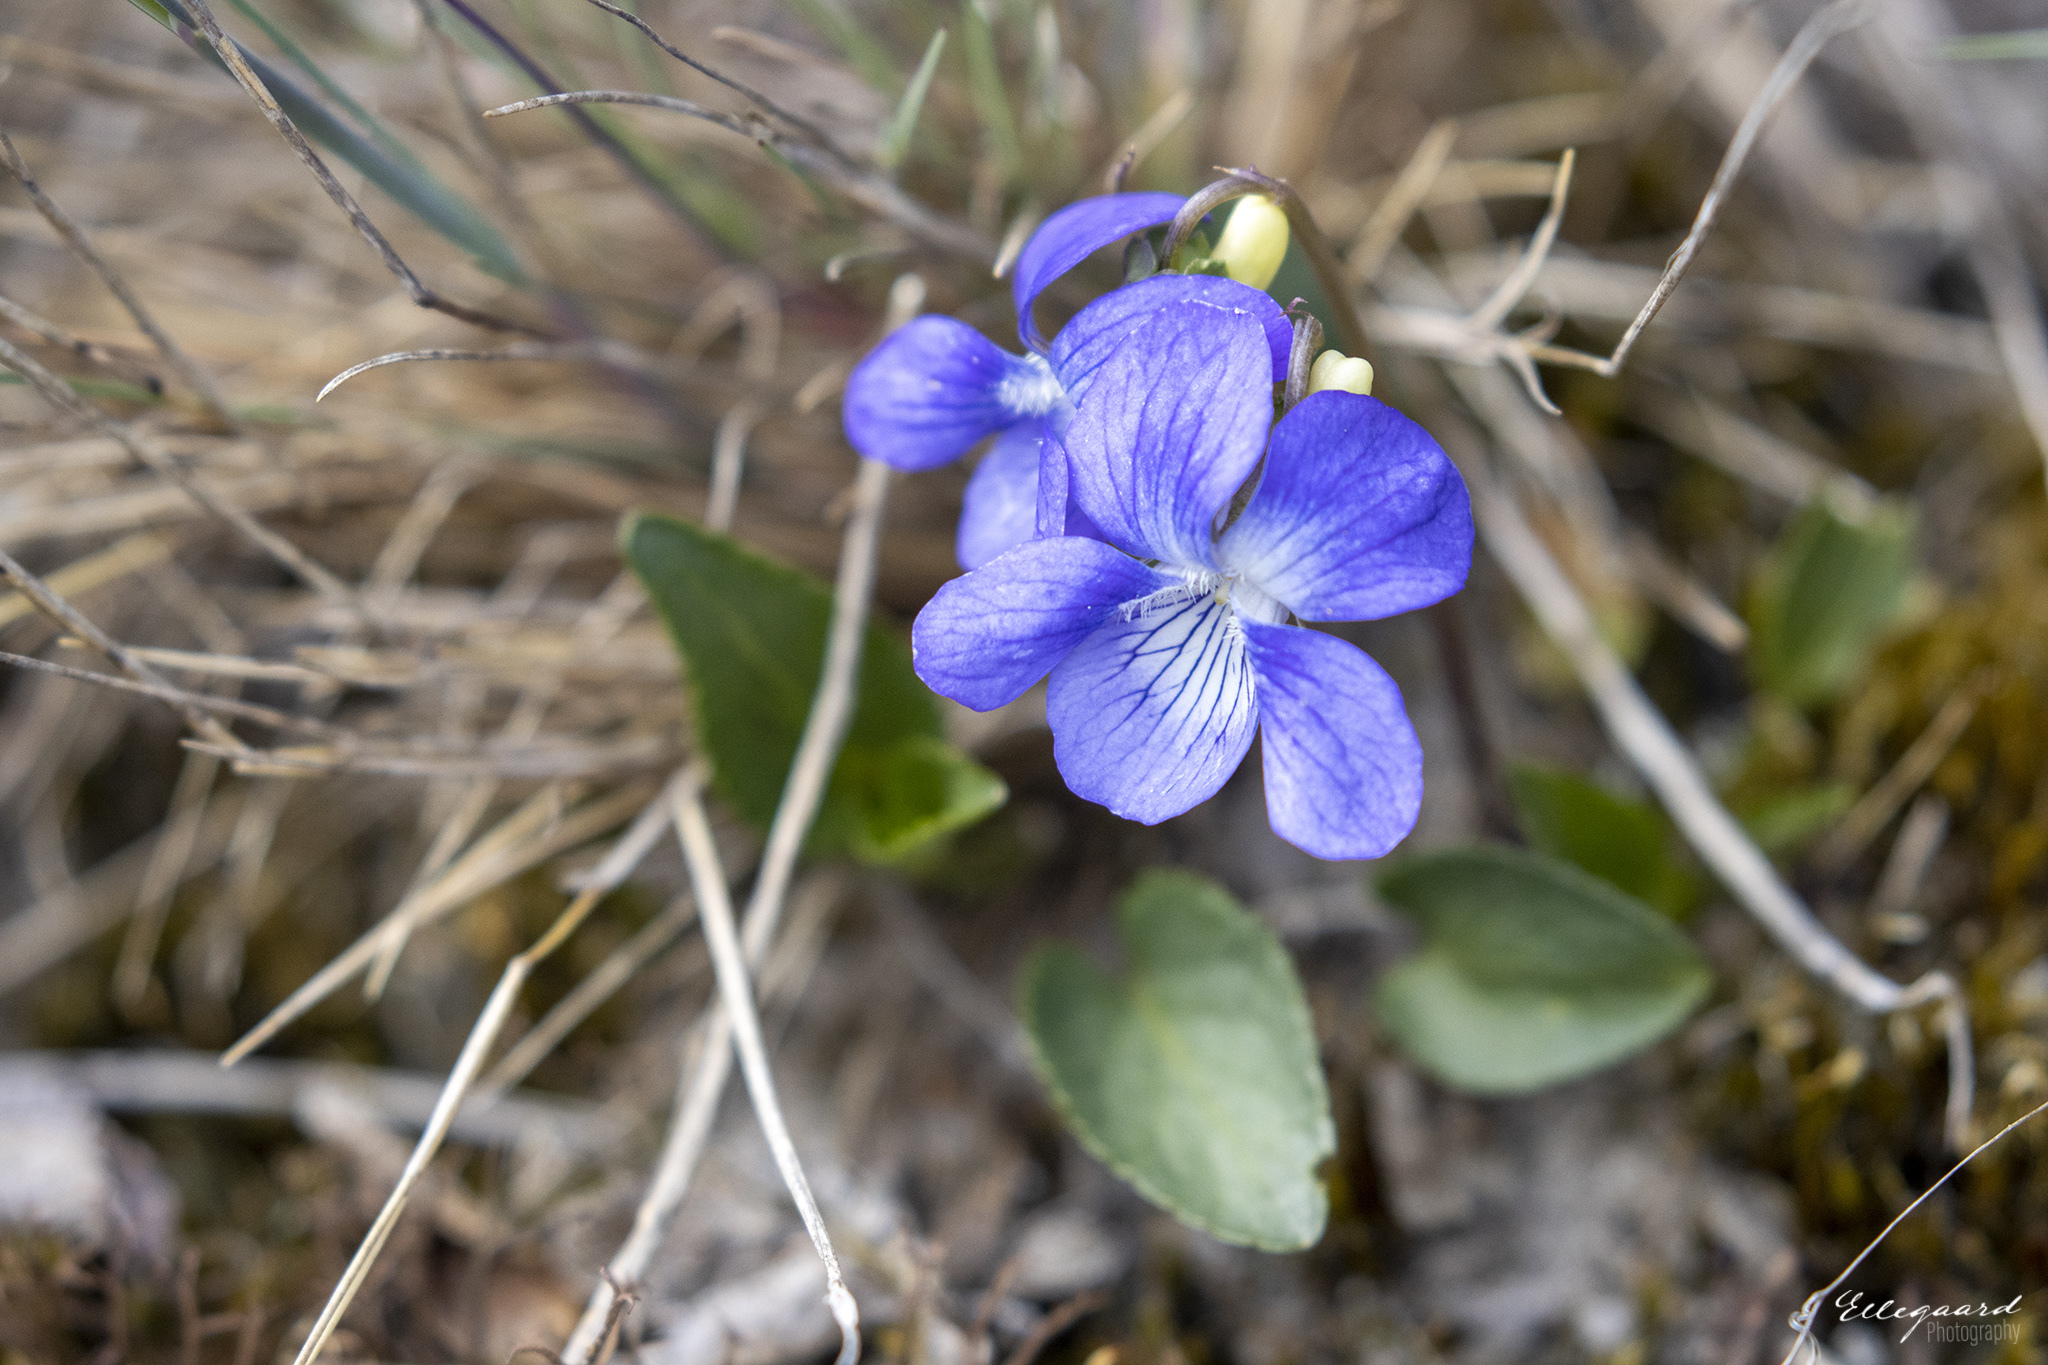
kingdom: Plantae
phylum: Tracheophyta
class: Magnoliopsida
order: Malpighiales
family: Violaceae
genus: Viola
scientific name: Viola canina
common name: Heath dog-violet
